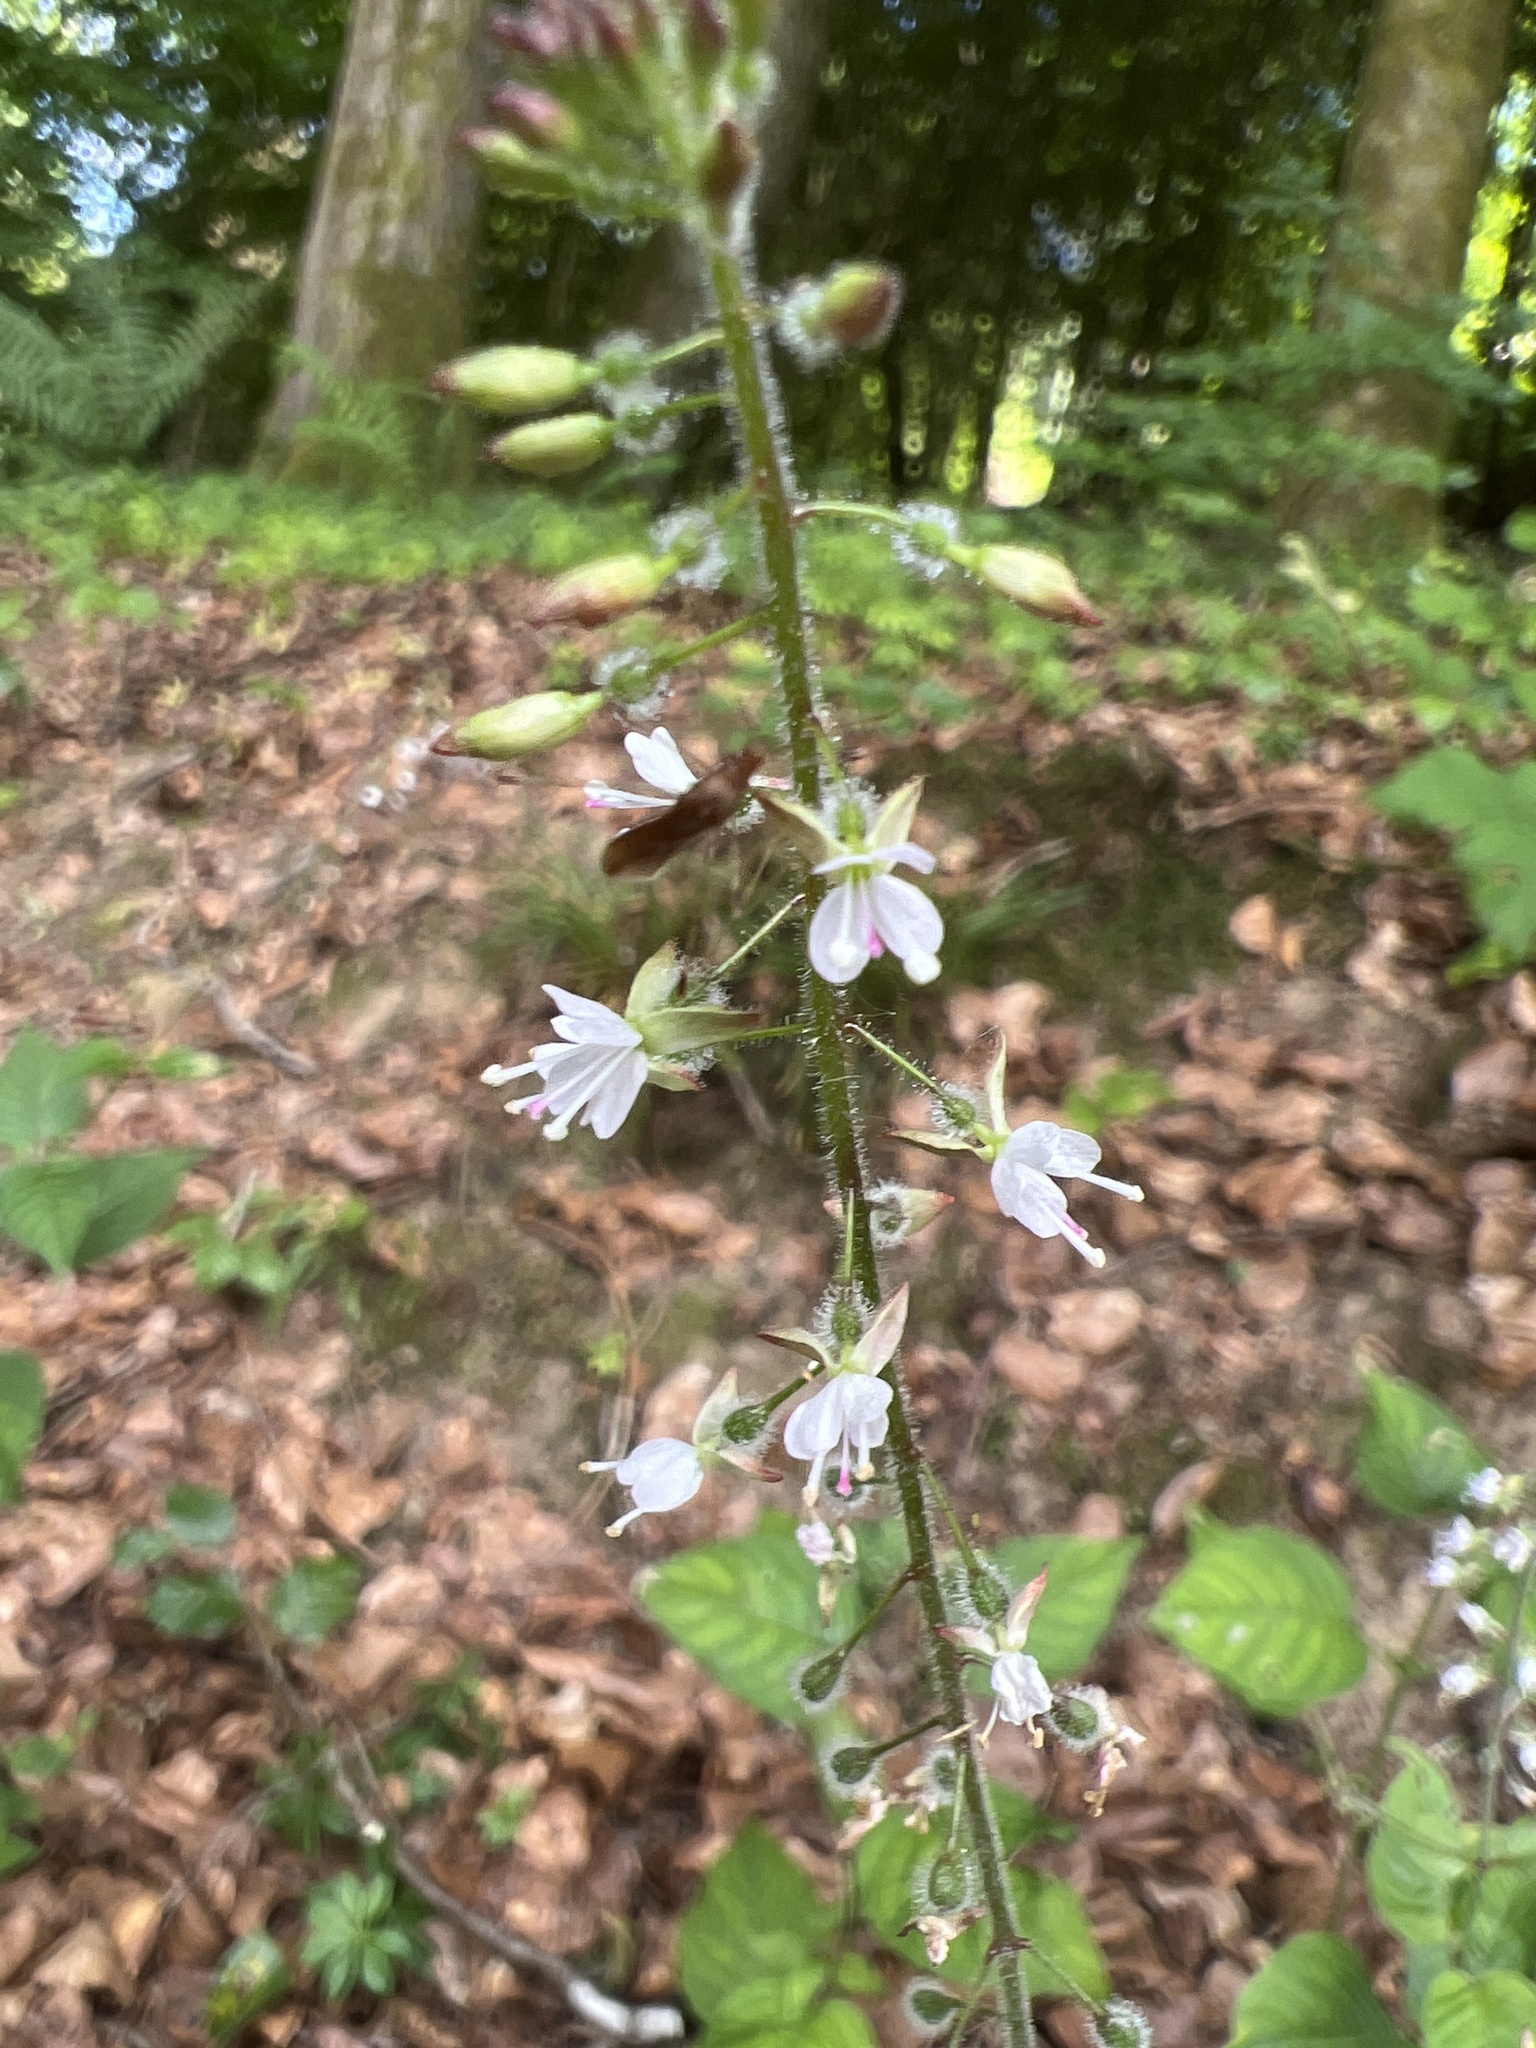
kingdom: Plantae
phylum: Tracheophyta
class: Magnoliopsida
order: Myrtales
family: Onagraceae
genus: Circaea
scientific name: Circaea lutetiana
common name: Enchanter's-nightshade
